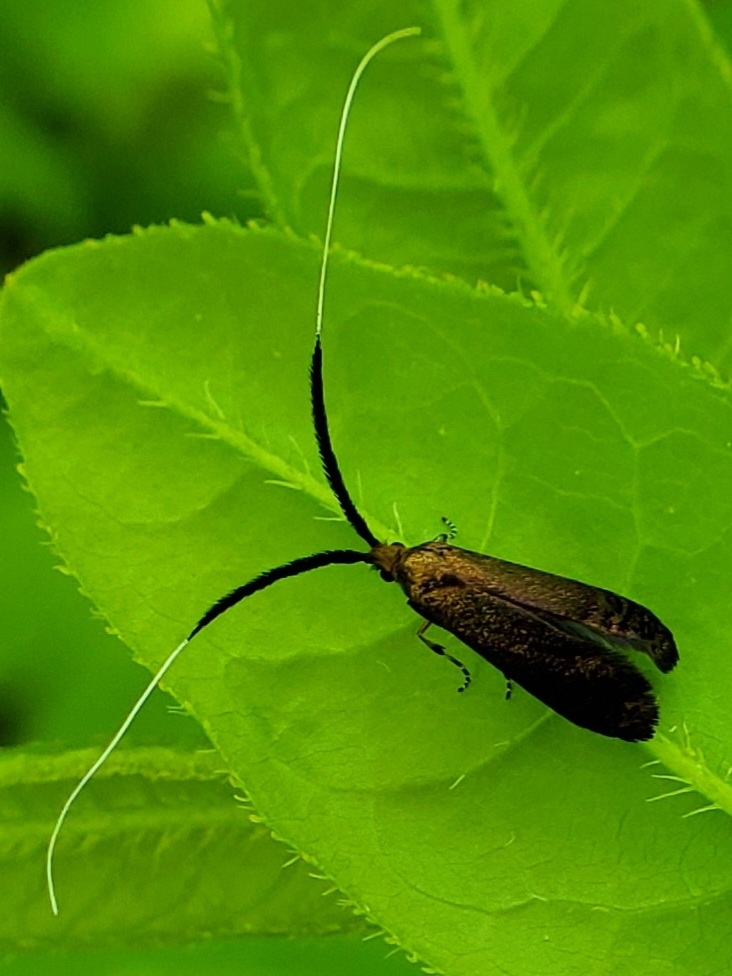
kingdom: Animalia
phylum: Arthropoda
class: Insecta
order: Lepidoptera
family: Adelidae
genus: Adela
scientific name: Adela caeruleella
